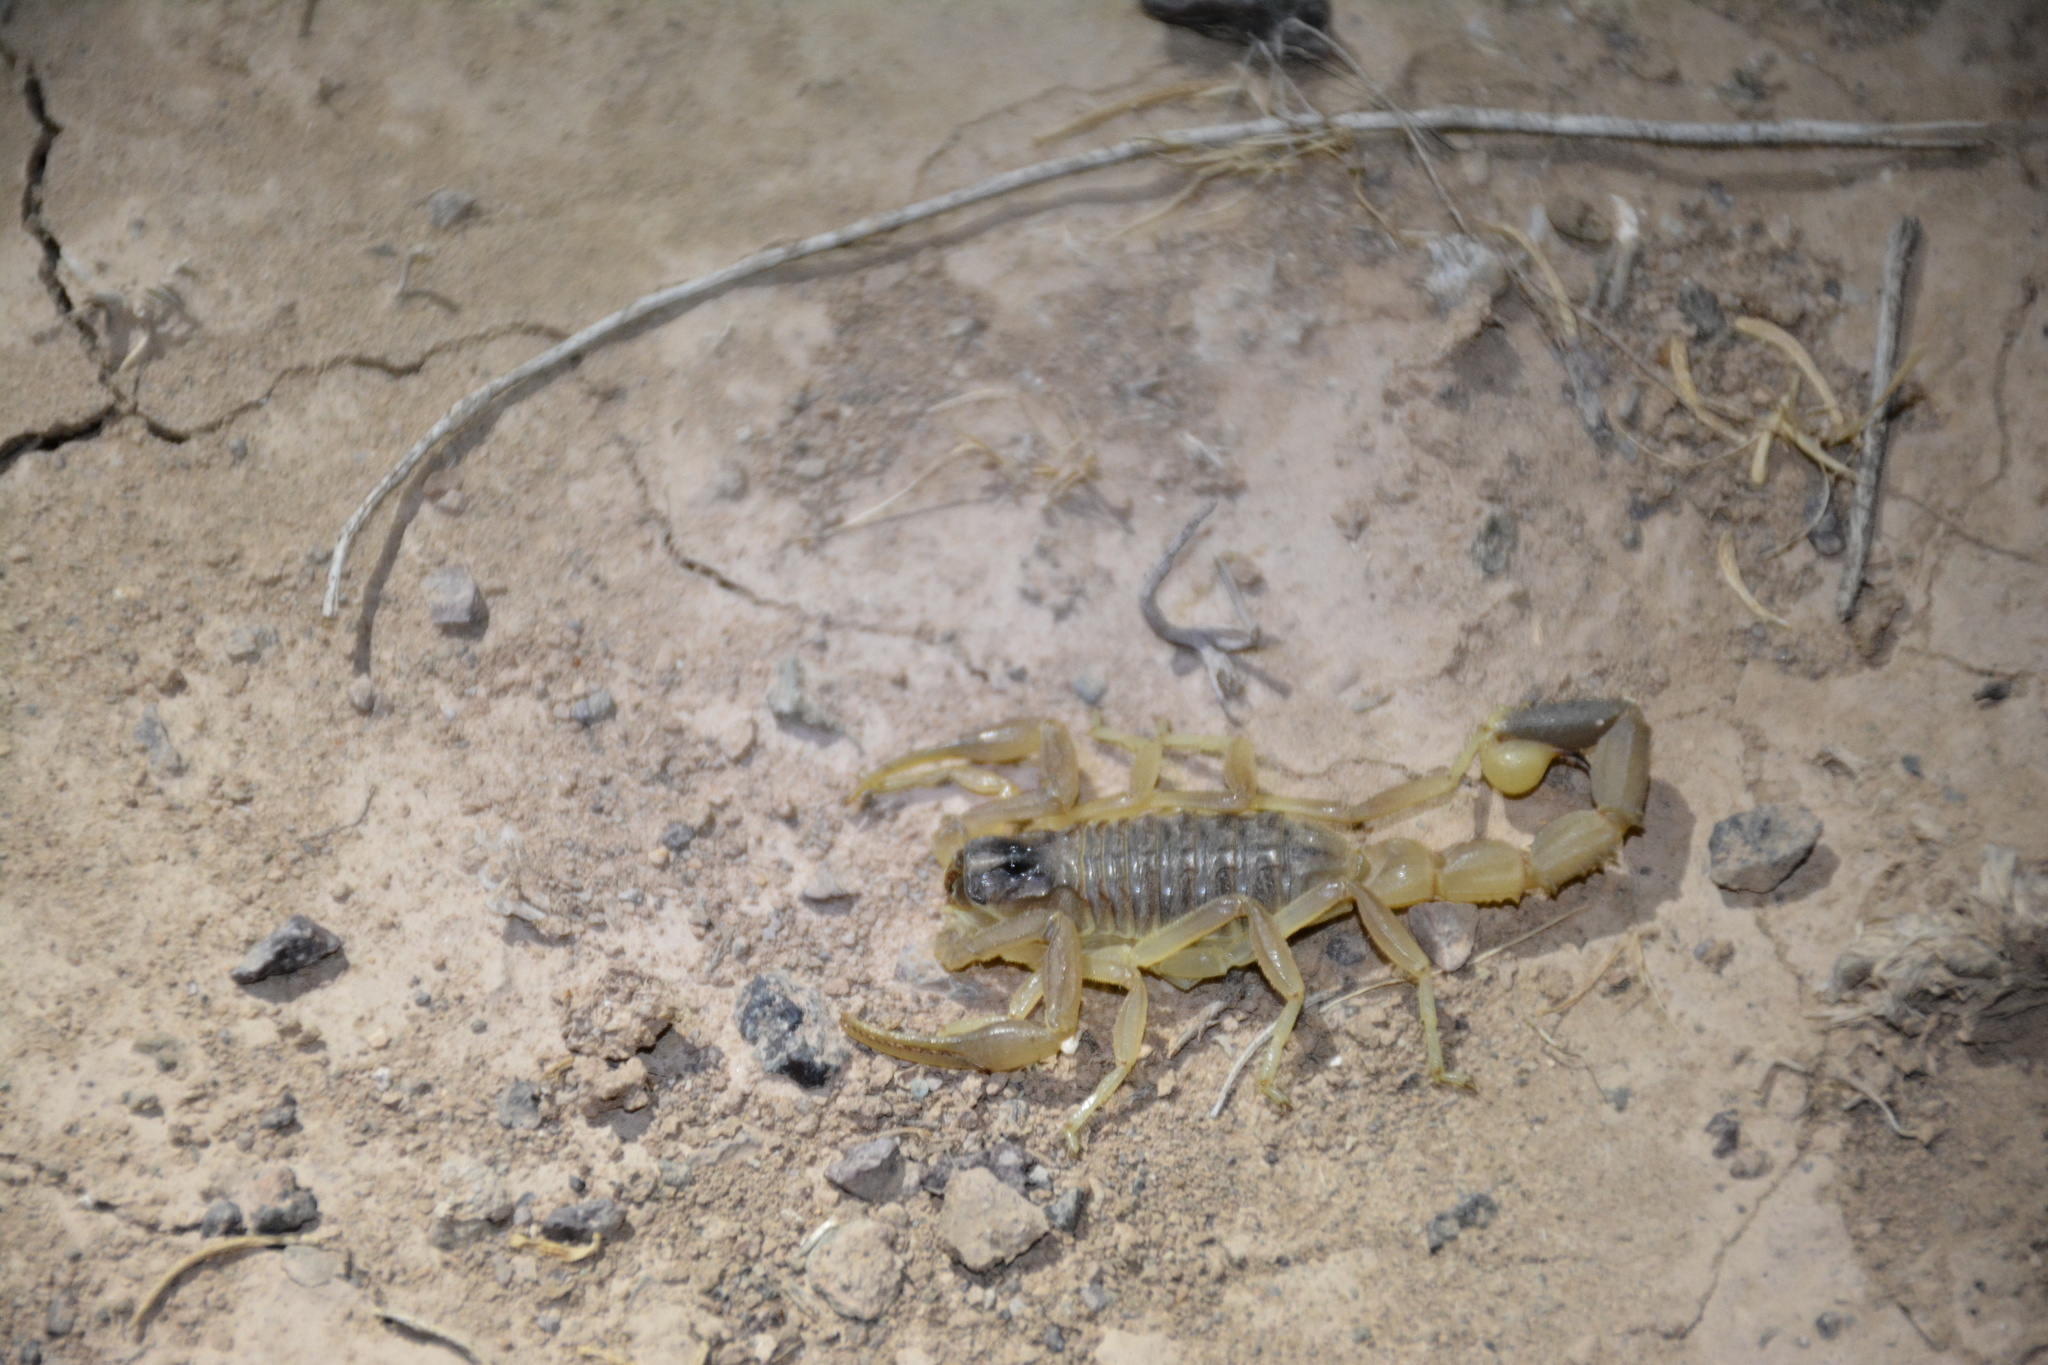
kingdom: Animalia
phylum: Arthropoda
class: Arachnida
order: Scorpiones
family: Buthidae
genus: Odontobuthus
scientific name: Odontobuthus doriae
